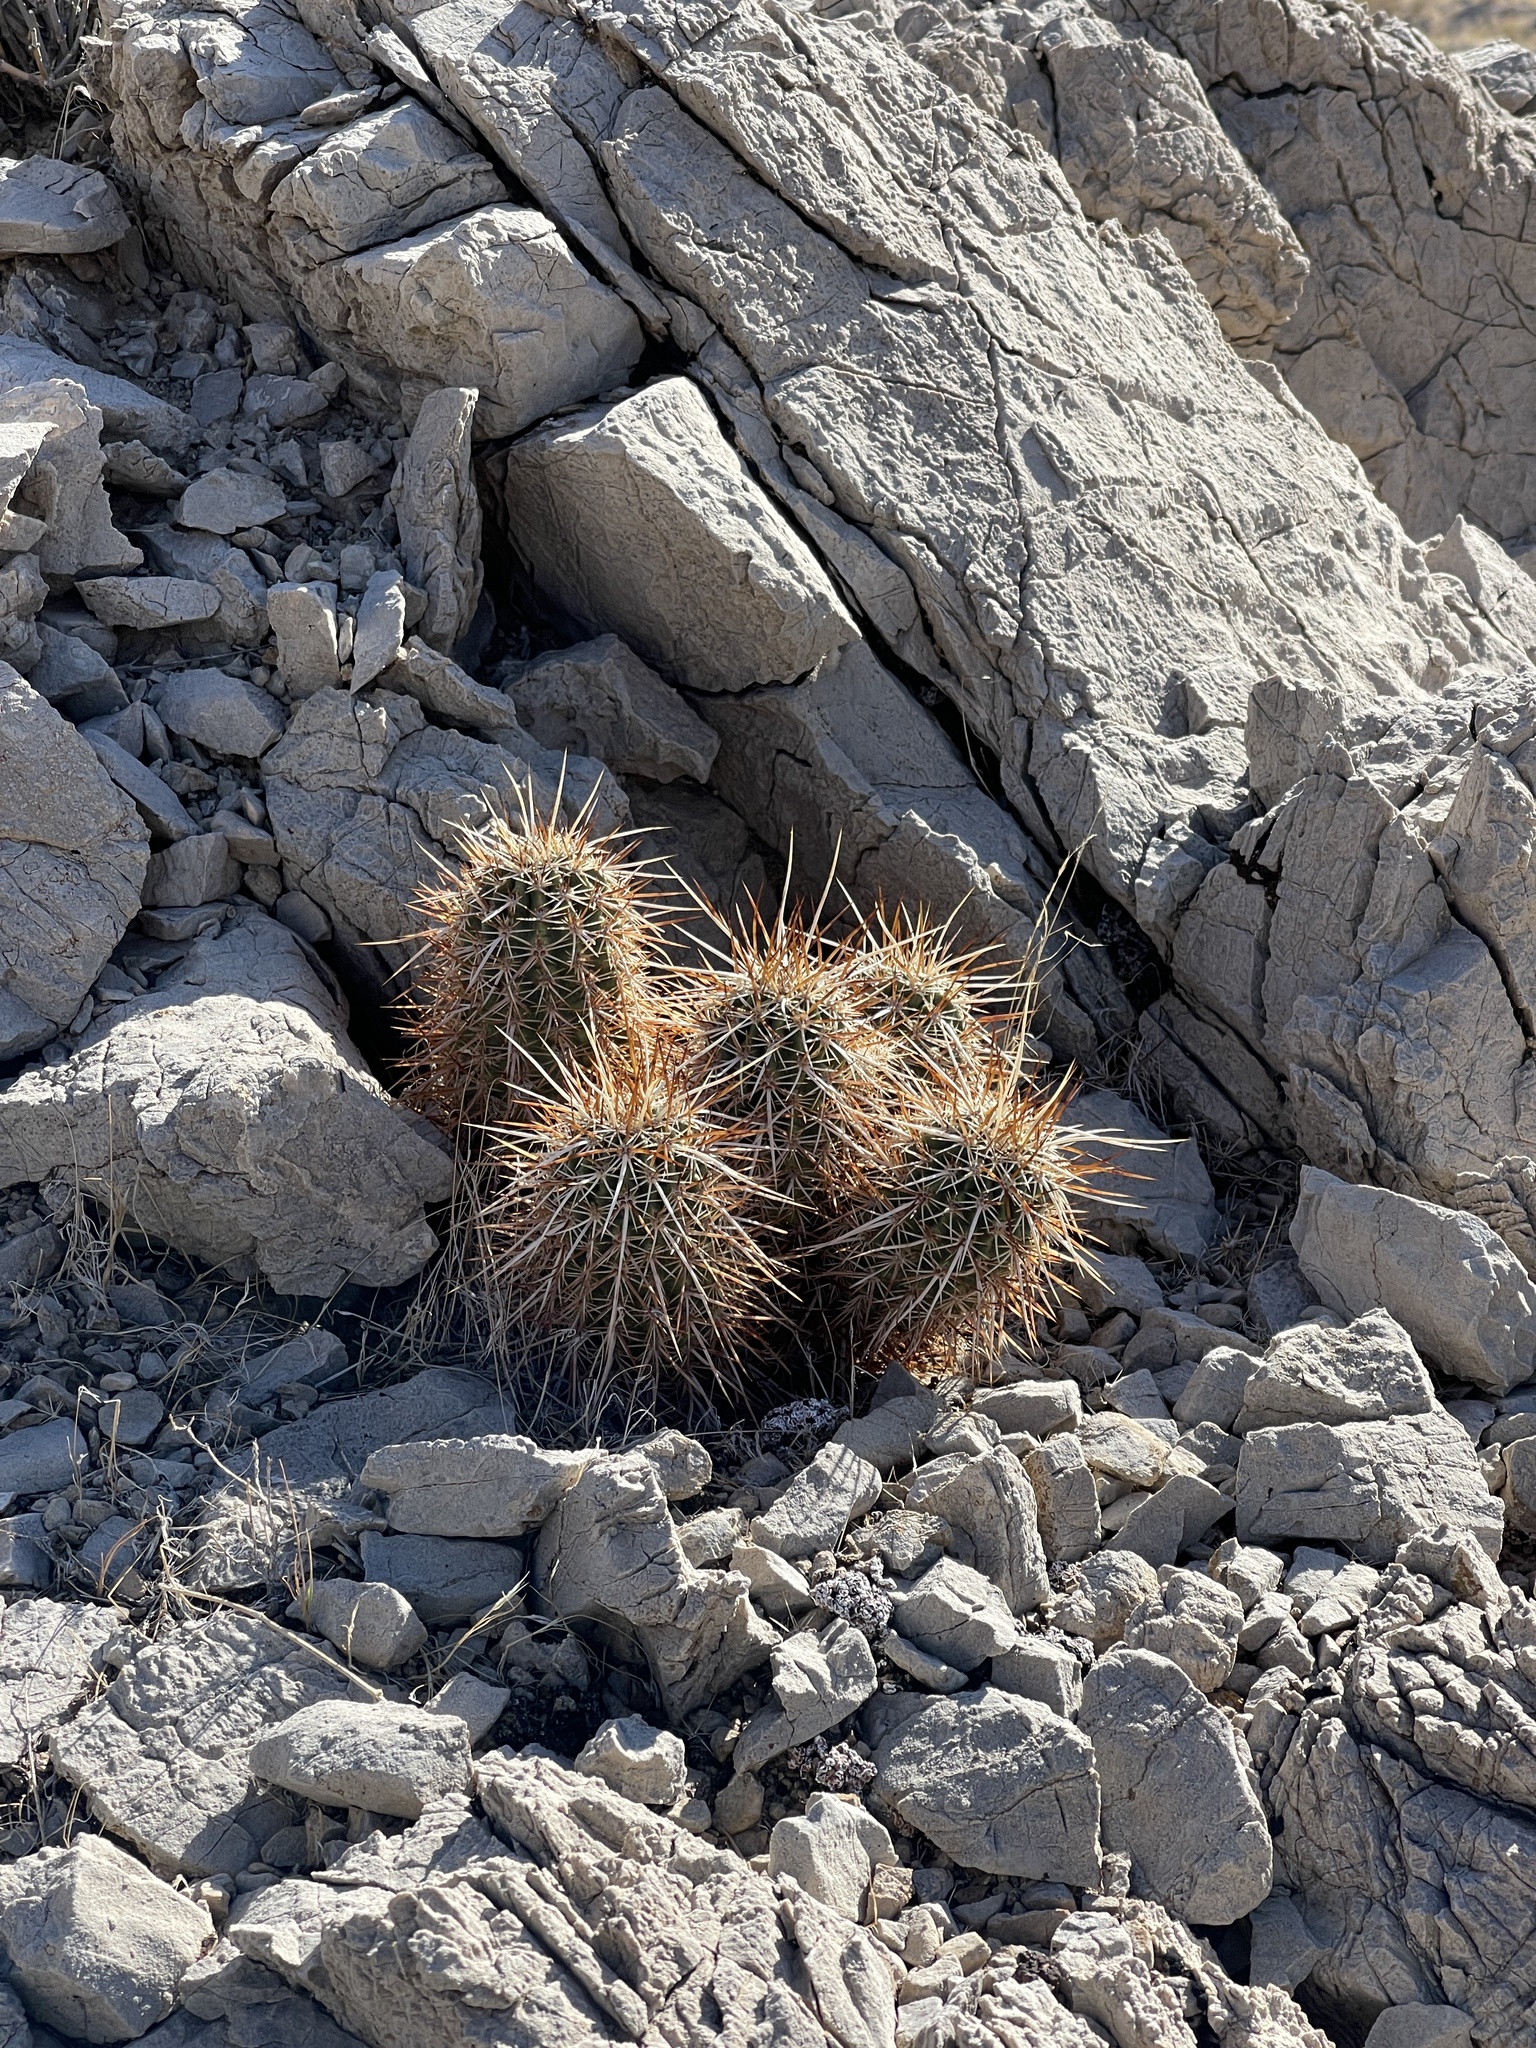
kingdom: Plantae
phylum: Tracheophyta
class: Magnoliopsida
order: Caryophyllales
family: Cactaceae
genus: Echinocereus
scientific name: Echinocereus engelmannii
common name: Engelmann's hedgehog cactus
